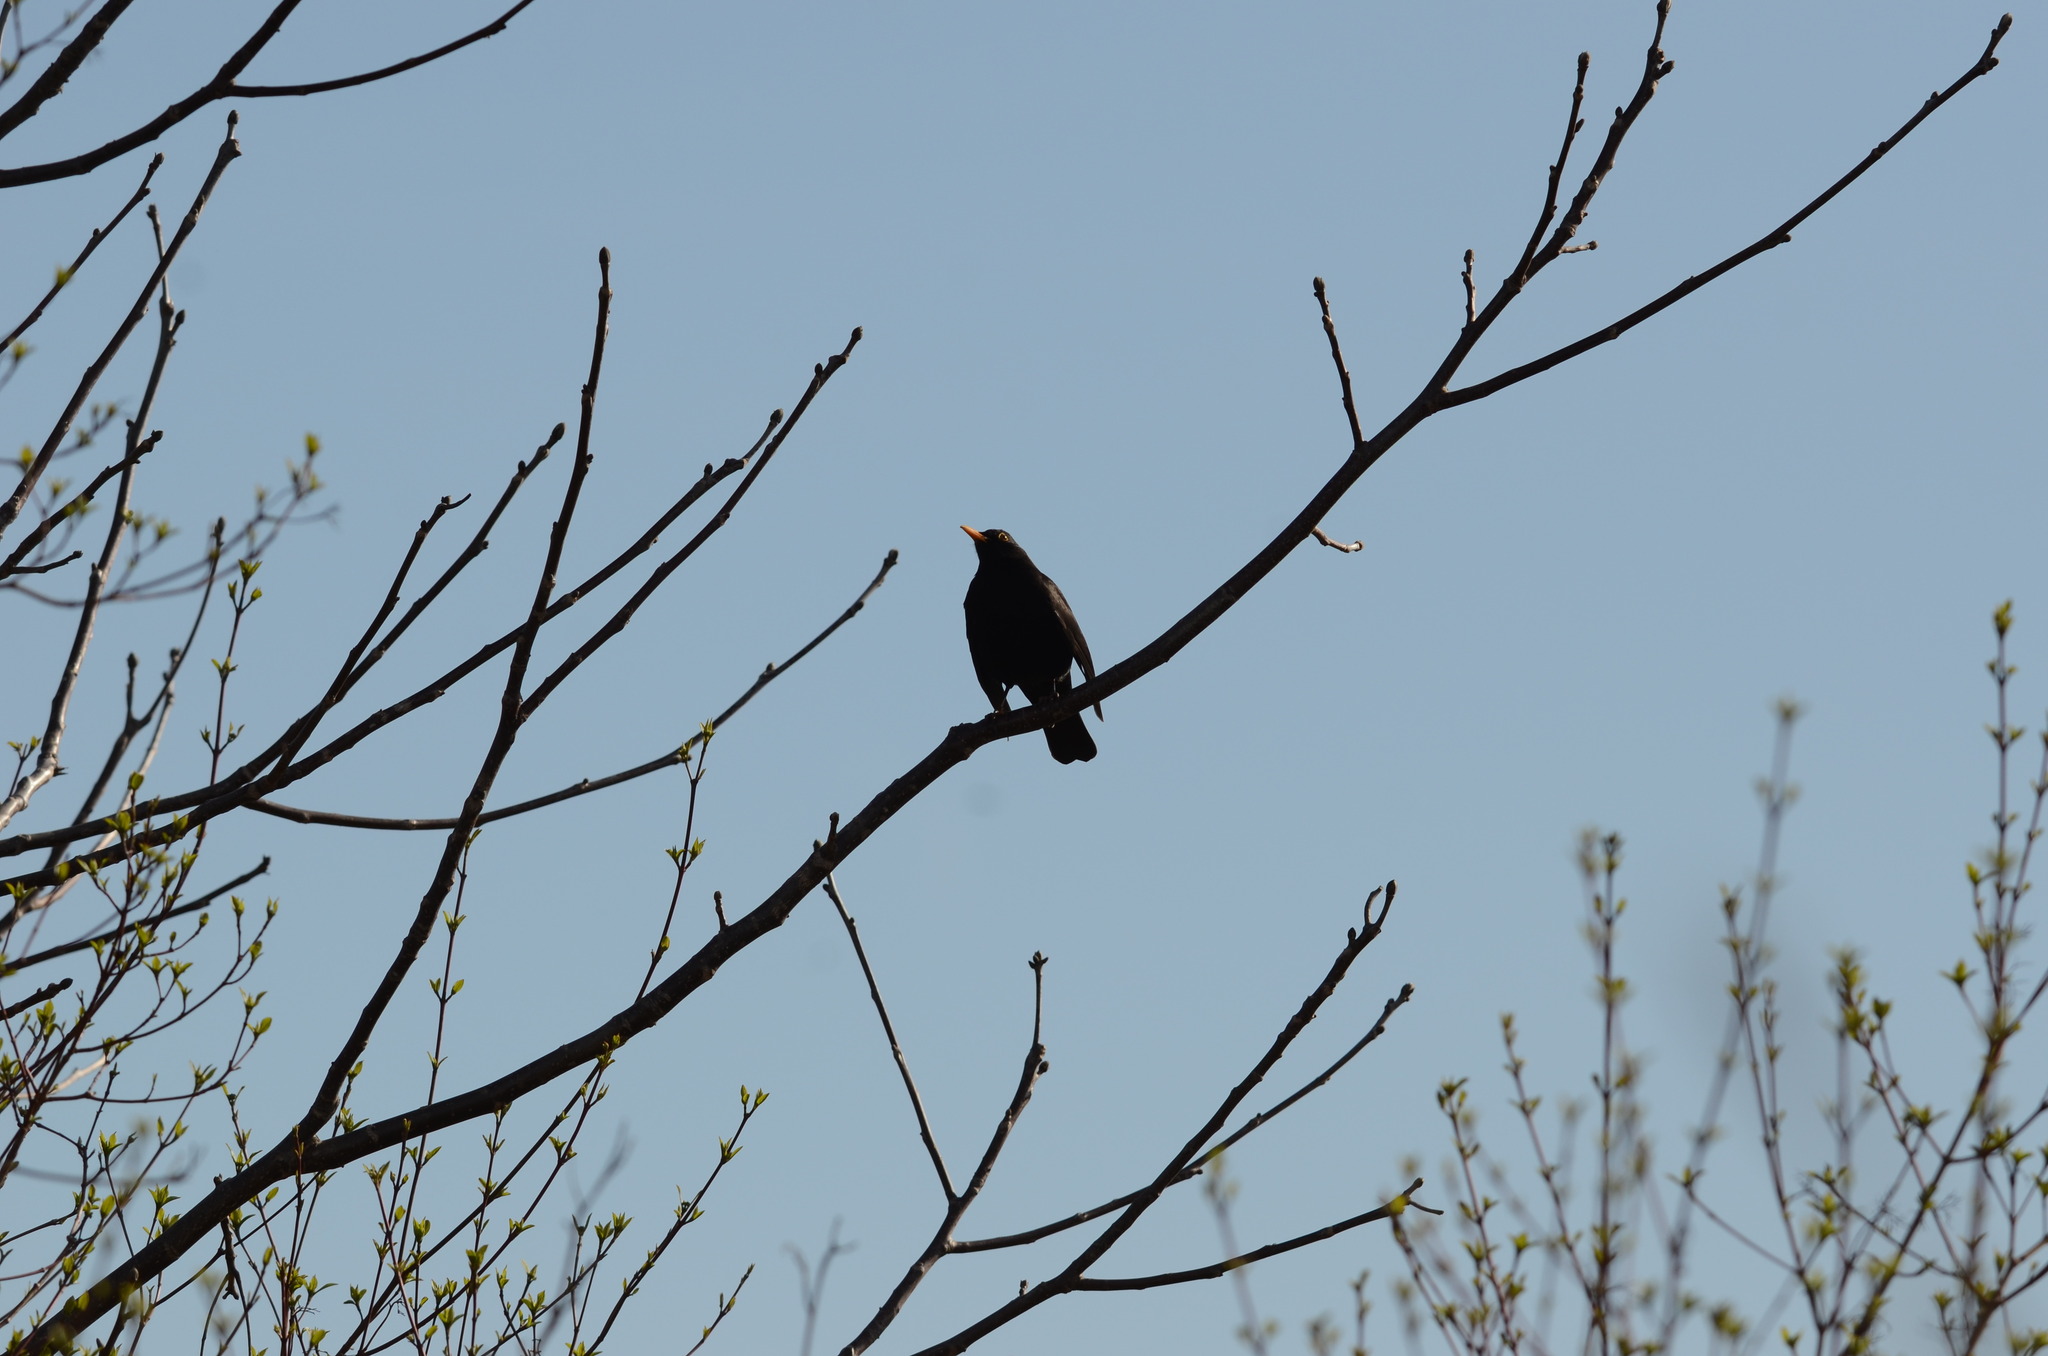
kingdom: Animalia
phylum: Chordata
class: Aves
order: Passeriformes
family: Turdidae
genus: Turdus
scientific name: Turdus merula
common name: Common blackbird
